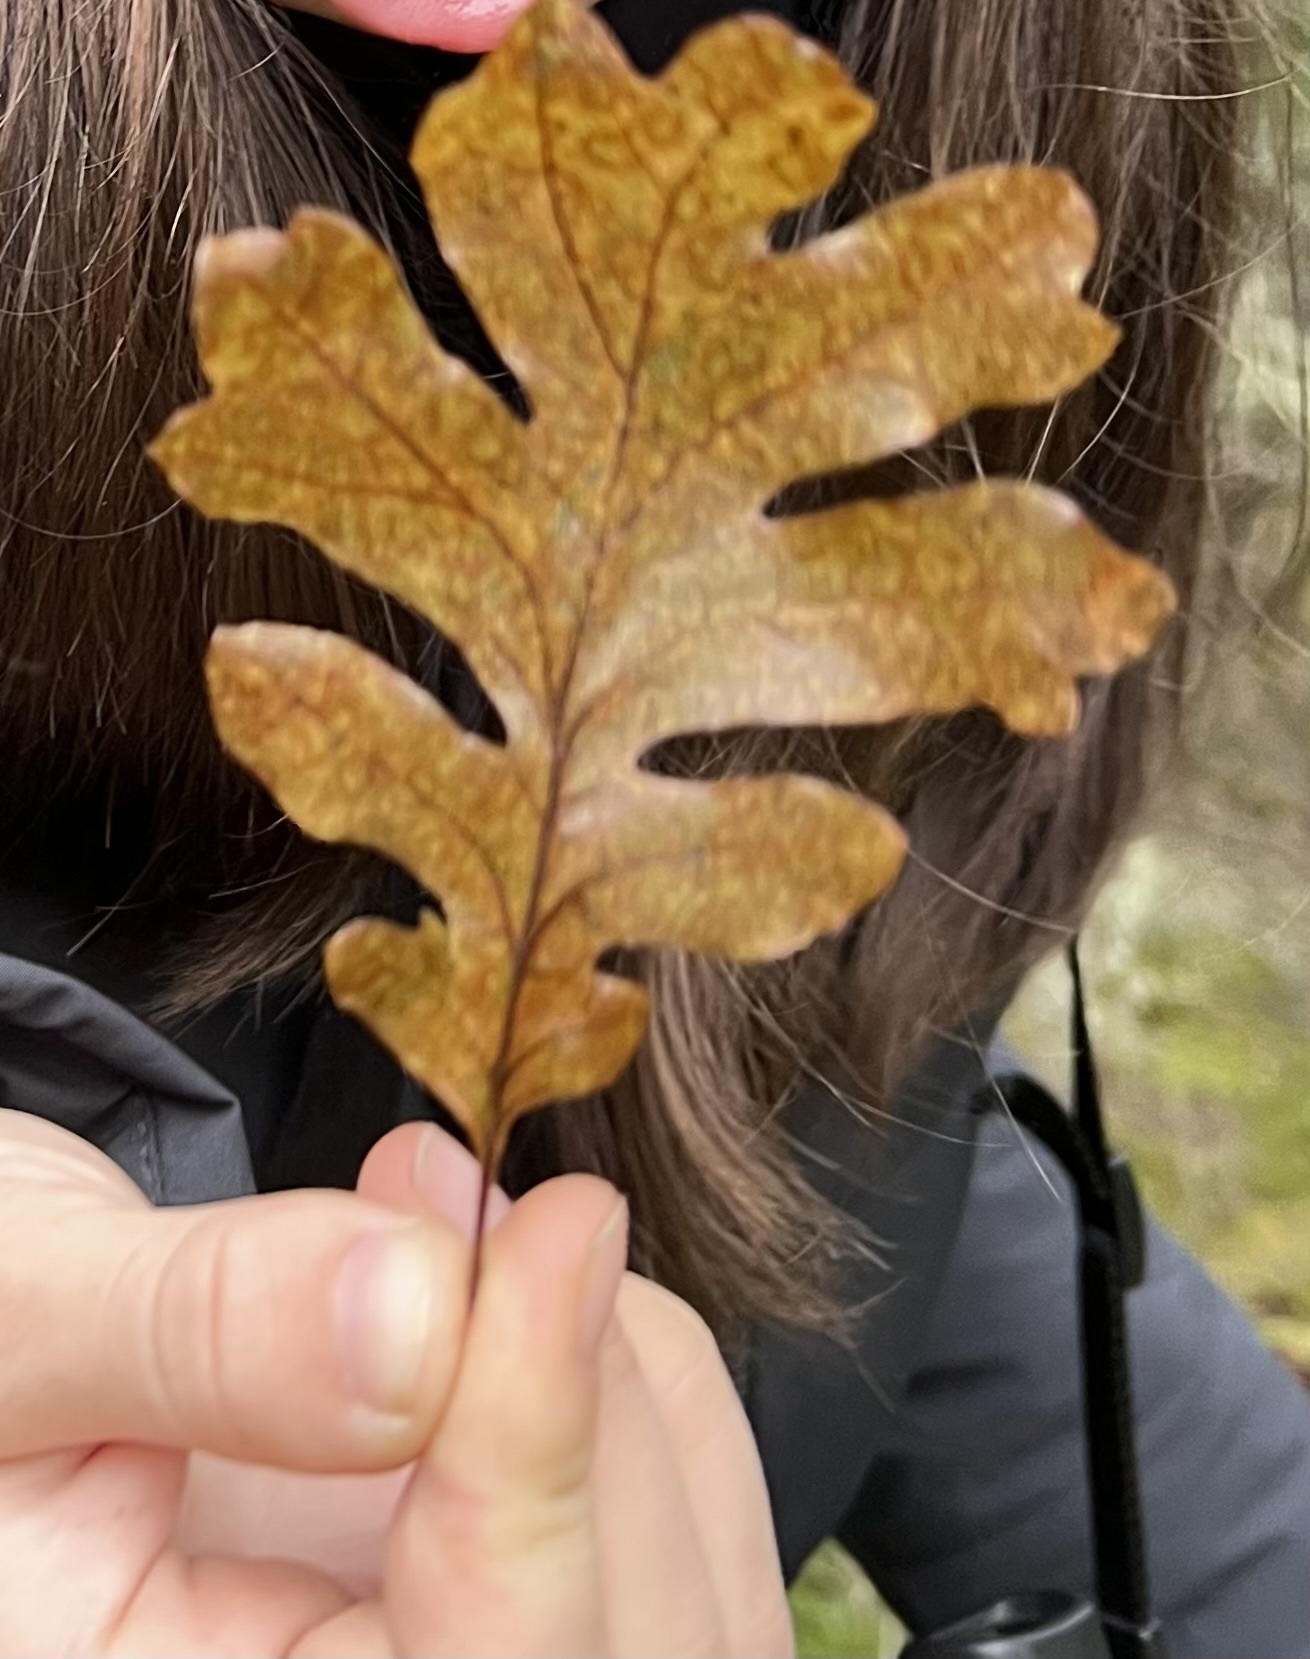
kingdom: Plantae
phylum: Tracheophyta
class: Magnoliopsida
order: Fagales
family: Fagaceae
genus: Quercus
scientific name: Quercus garryana
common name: Garry oak
